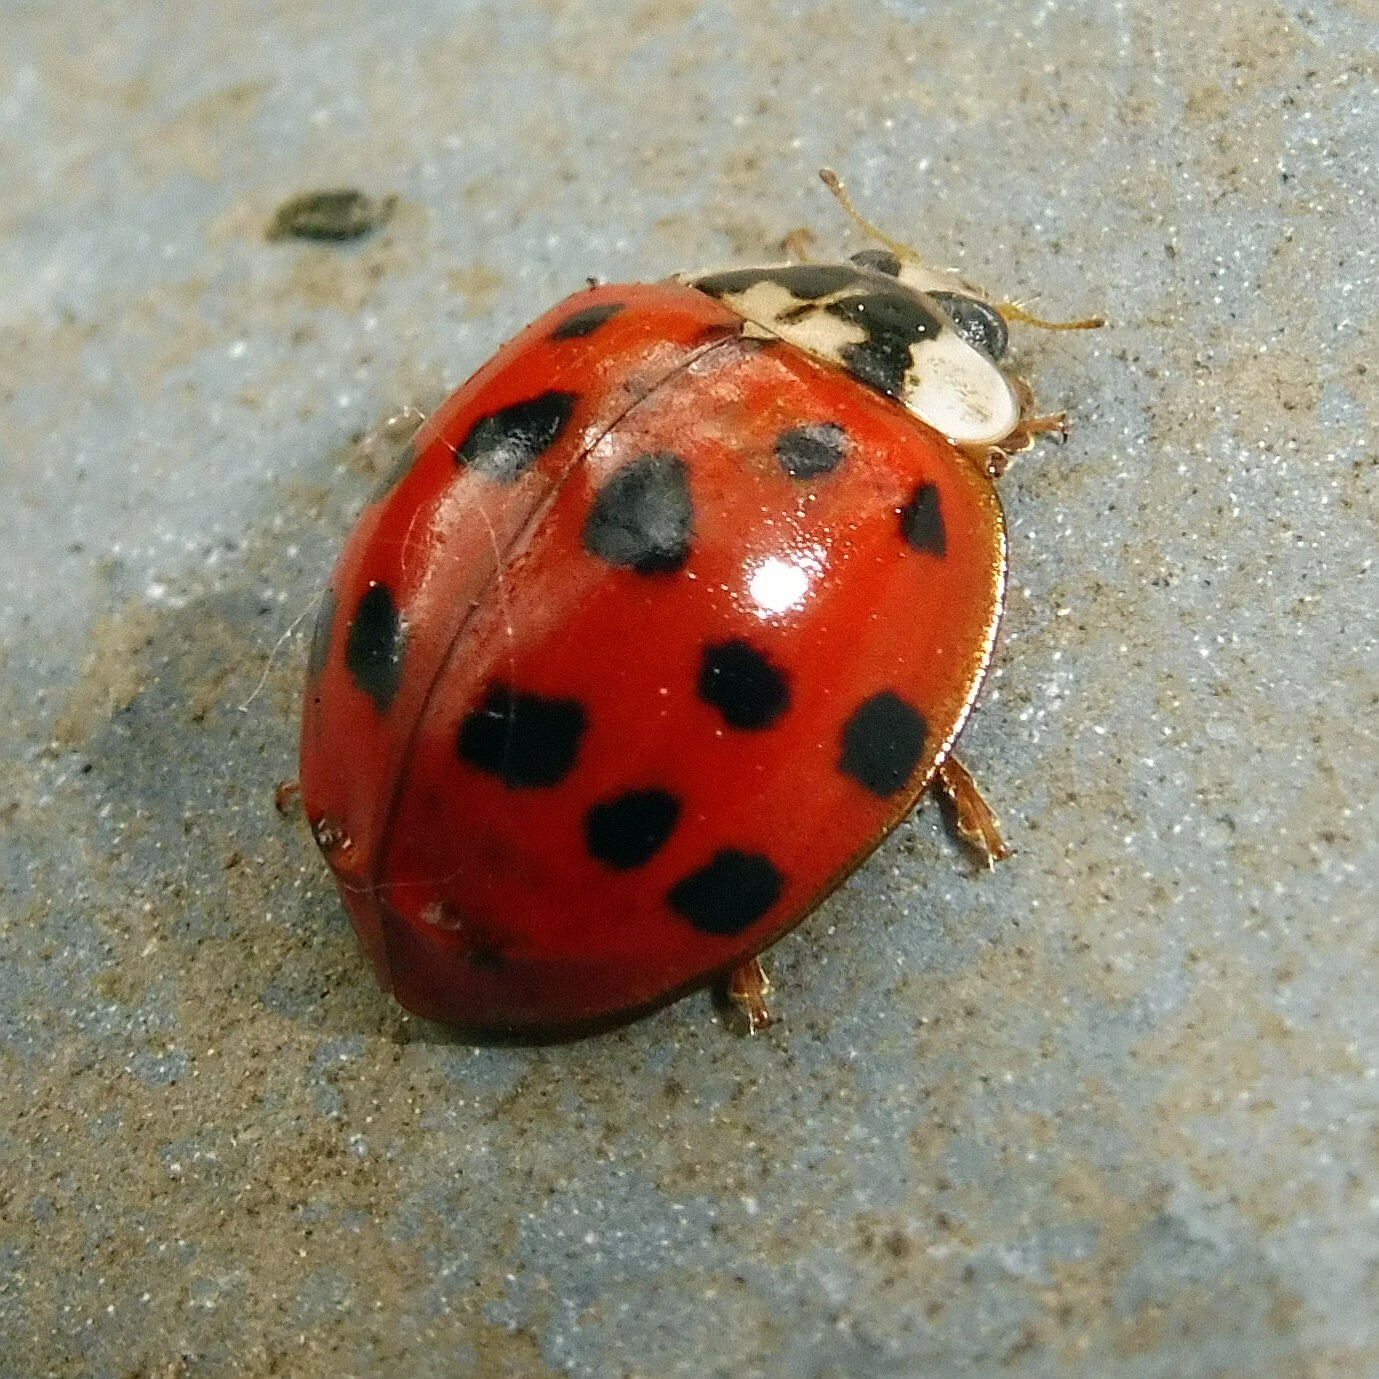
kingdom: Animalia
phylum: Arthropoda
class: Insecta
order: Coleoptera
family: Coccinellidae
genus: Harmonia
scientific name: Harmonia axyridis
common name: Harlequin ladybird
